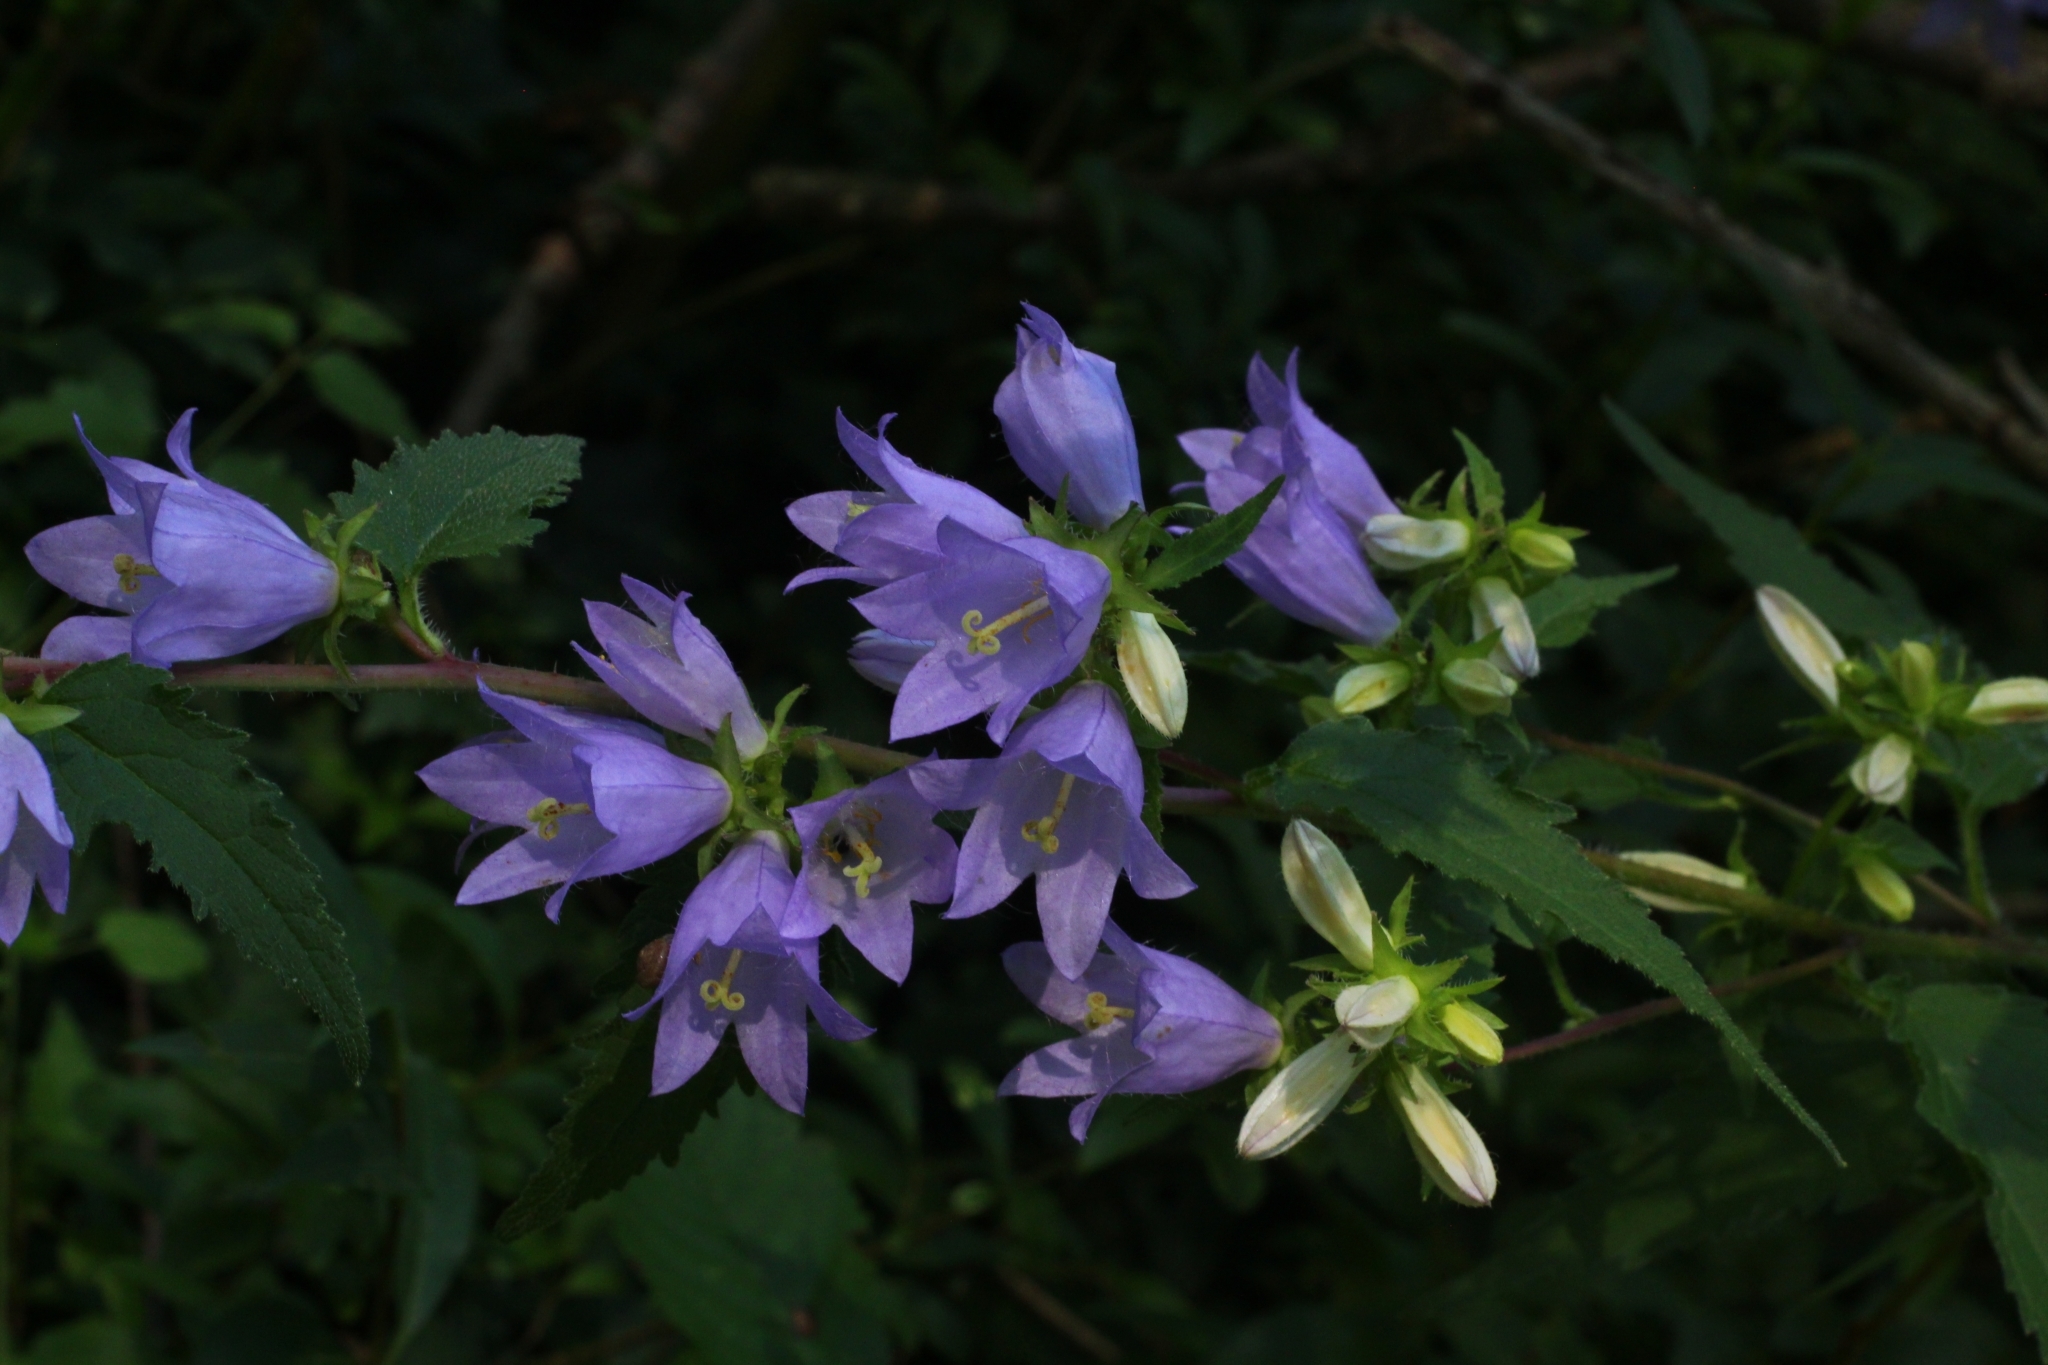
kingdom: Plantae
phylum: Tracheophyta
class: Magnoliopsida
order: Asterales
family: Campanulaceae
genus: Campanula
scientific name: Campanula trachelium
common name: Nettle-leaved bellflower
